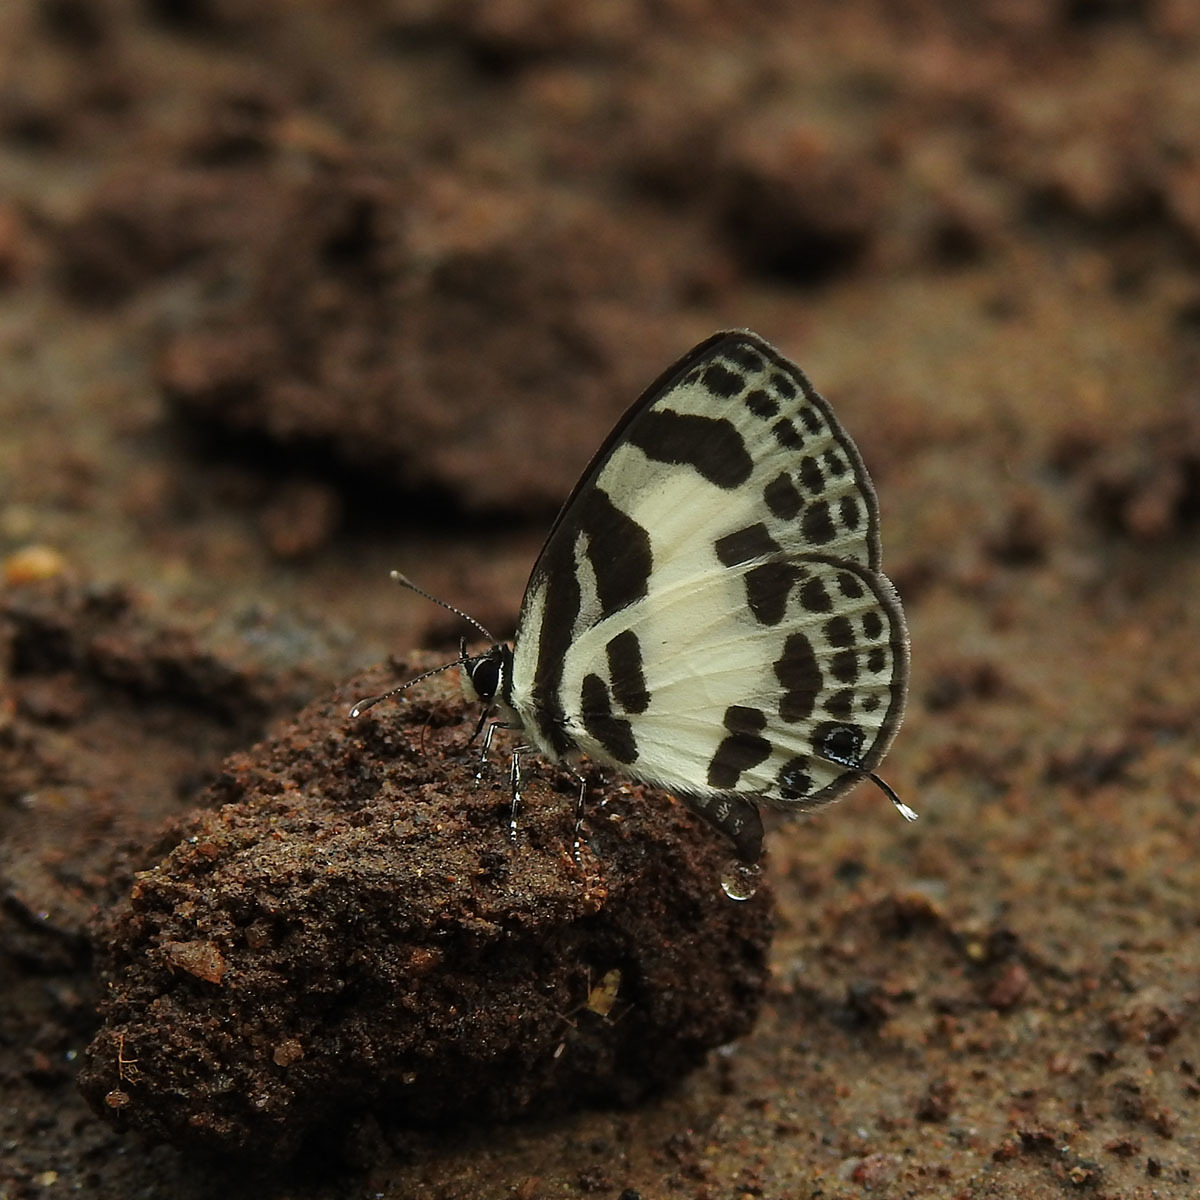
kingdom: Animalia
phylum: Arthropoda
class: Insecta
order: Lepidoptera
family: Lycaenidae
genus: Discolampa
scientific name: Discolampa ethion
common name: Banded blue pierrot
